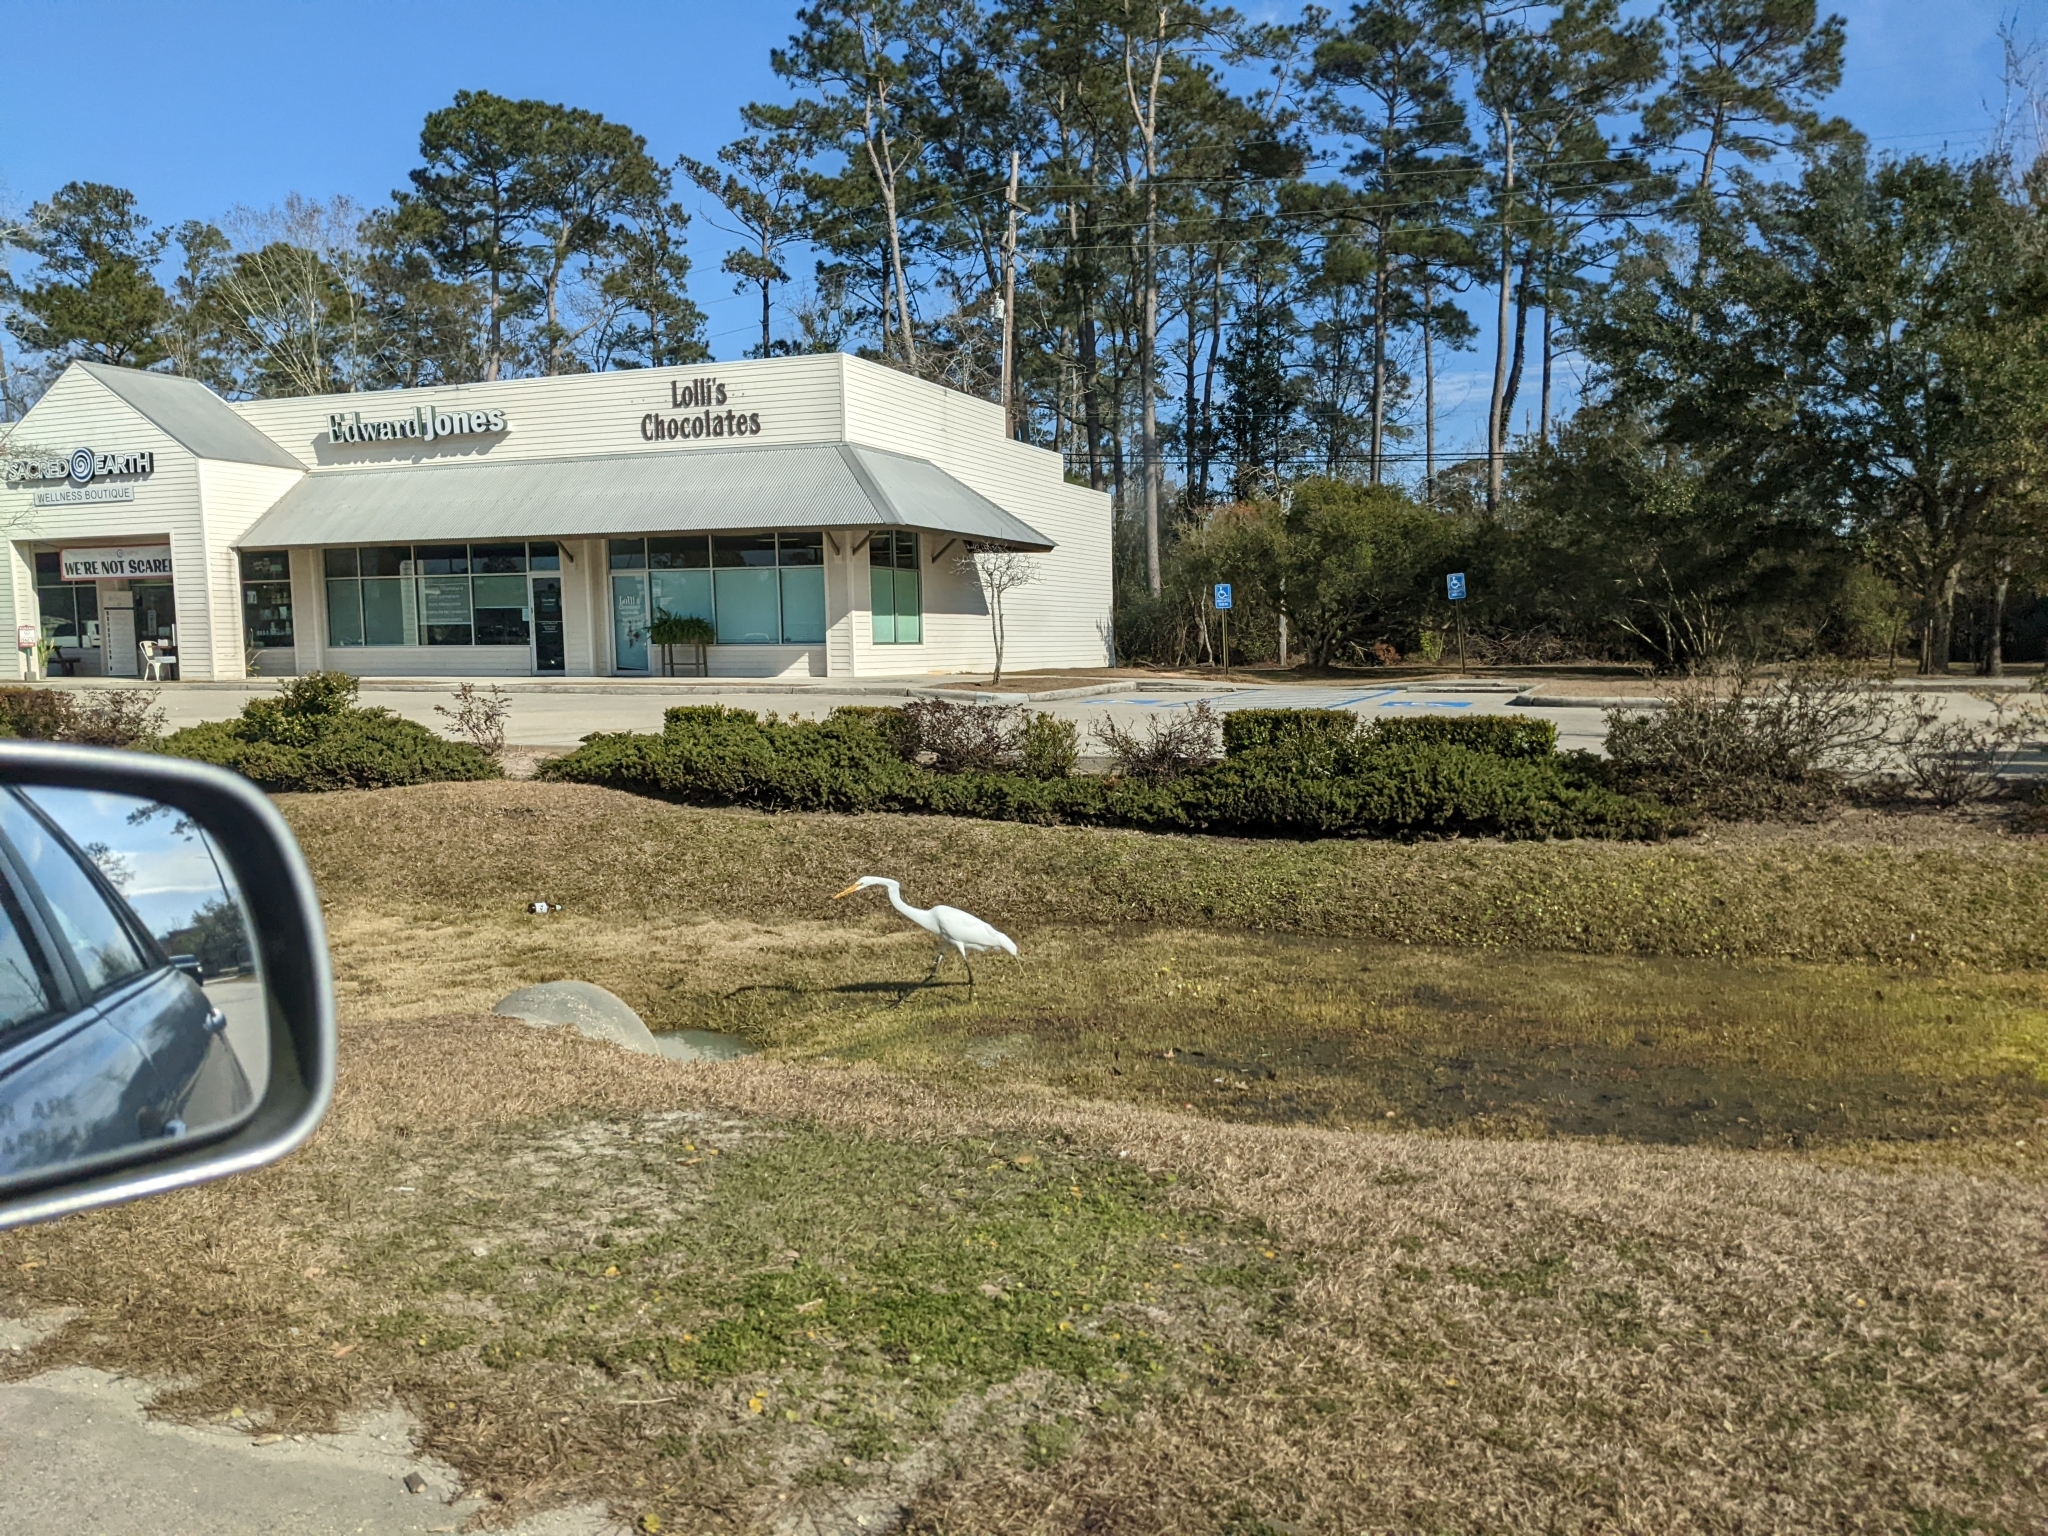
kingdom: Animalia
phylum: Chordata
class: Aves
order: Pelecaniformes
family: Ardeidae
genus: Ardea
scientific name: Ardea alba
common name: Great egret
